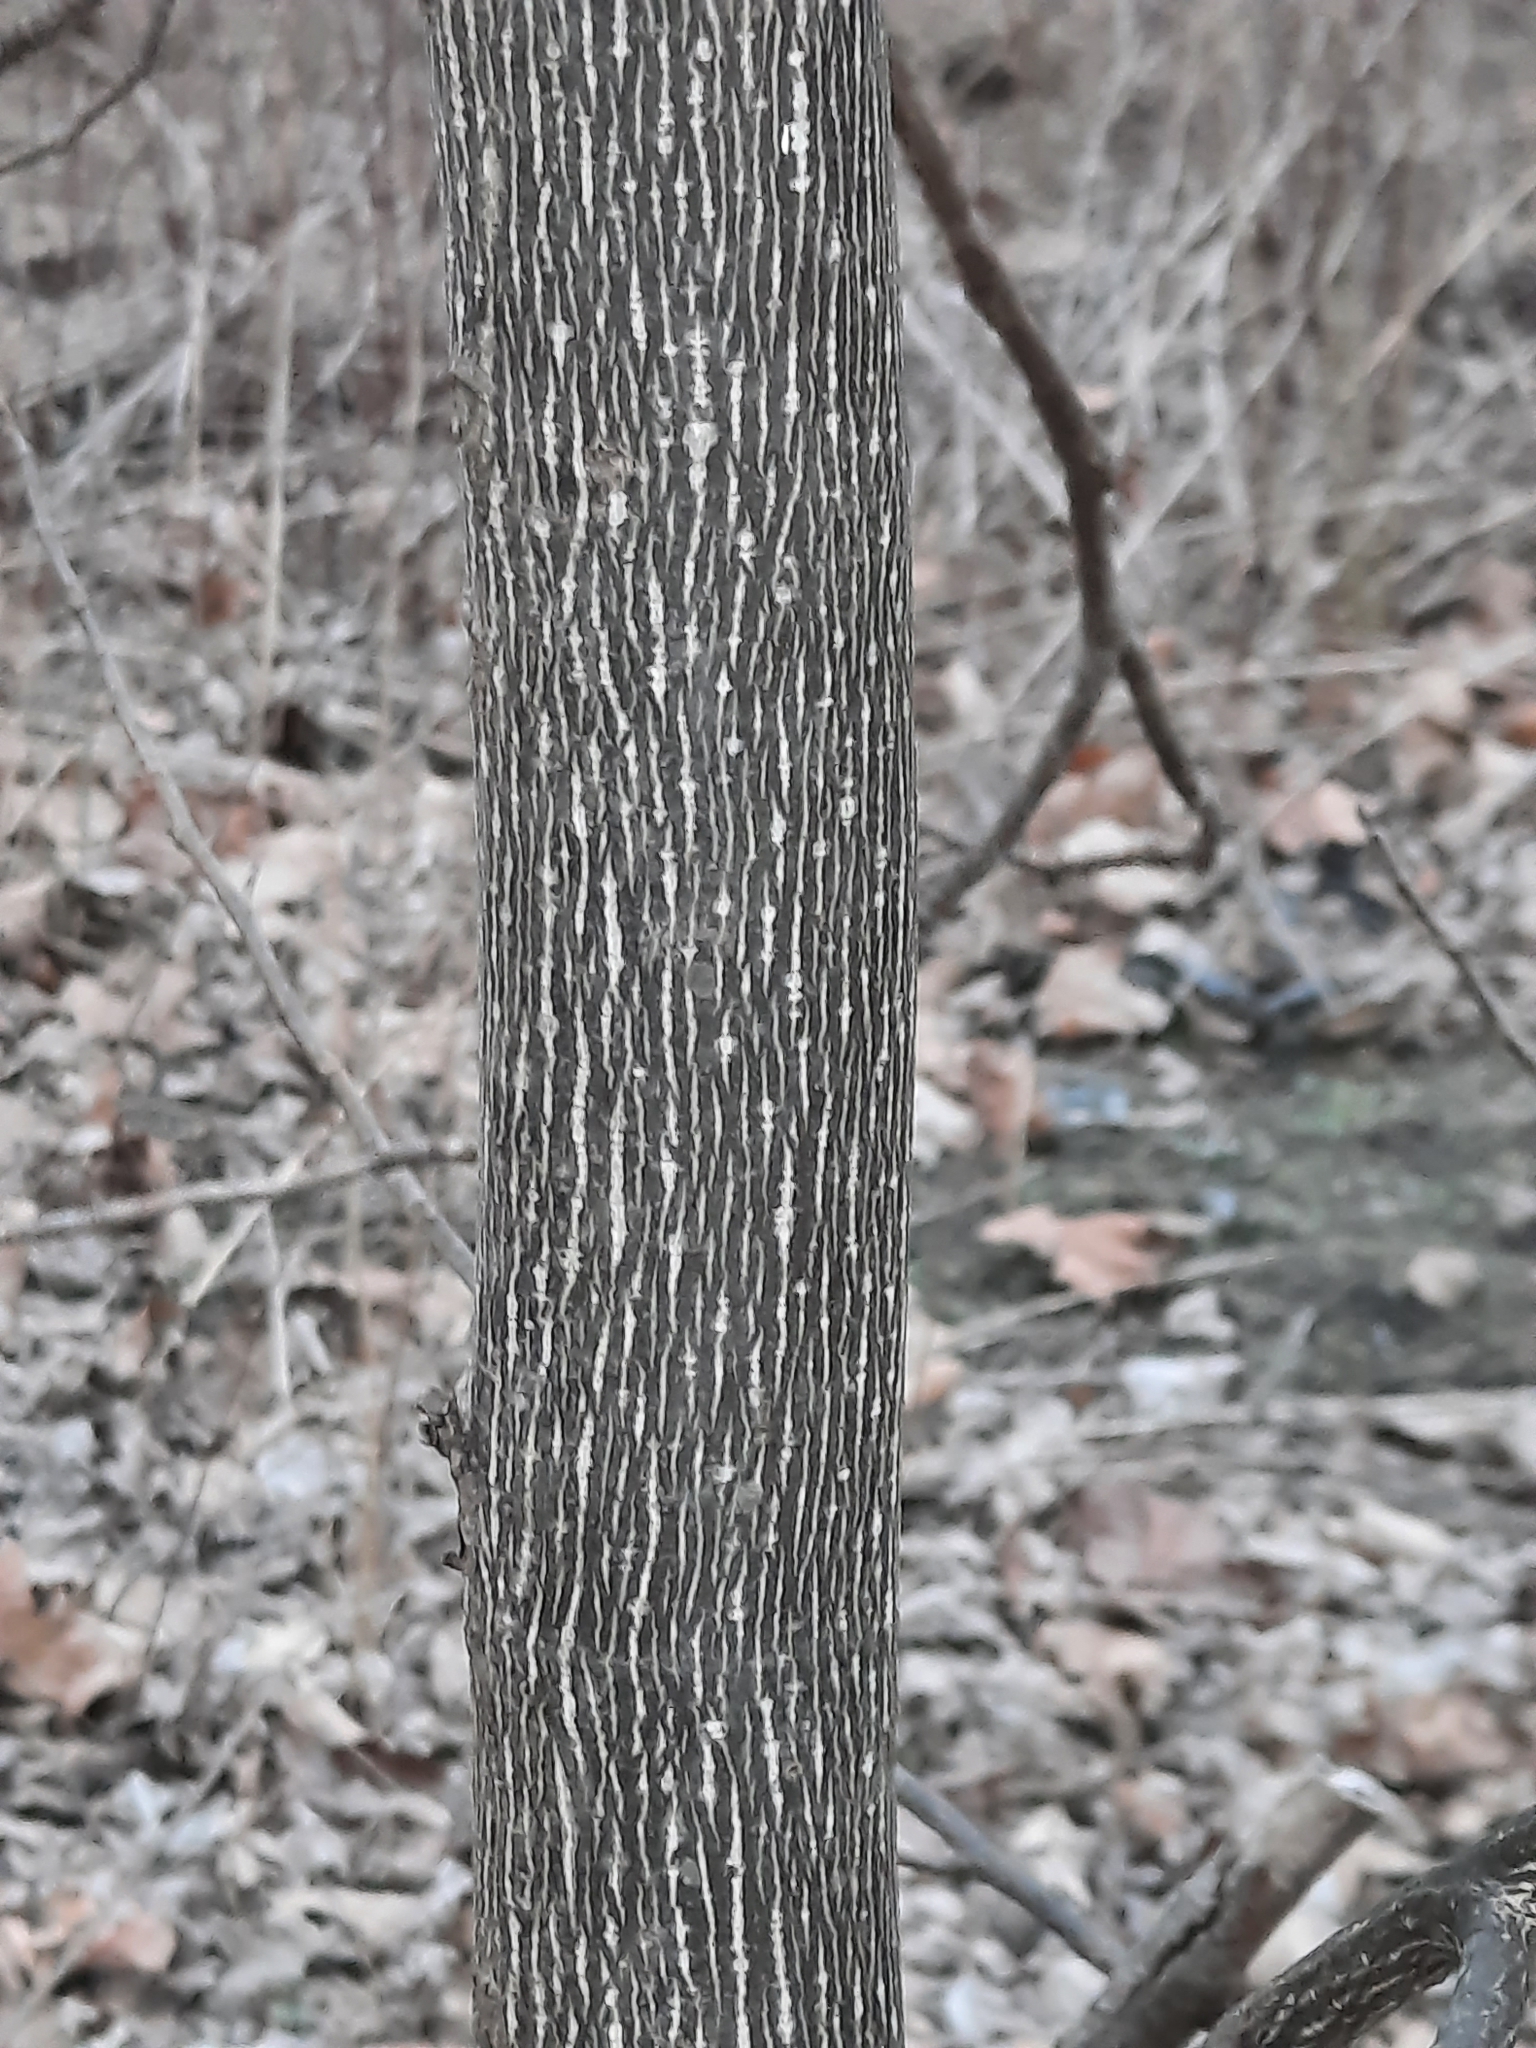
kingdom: Plantae
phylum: Tracheophyta
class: Magnoliopsida
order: Magnoliales
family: Magnoliaceae
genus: Liriodendron
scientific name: Liriodendron tulipifera
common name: Tulip tree
